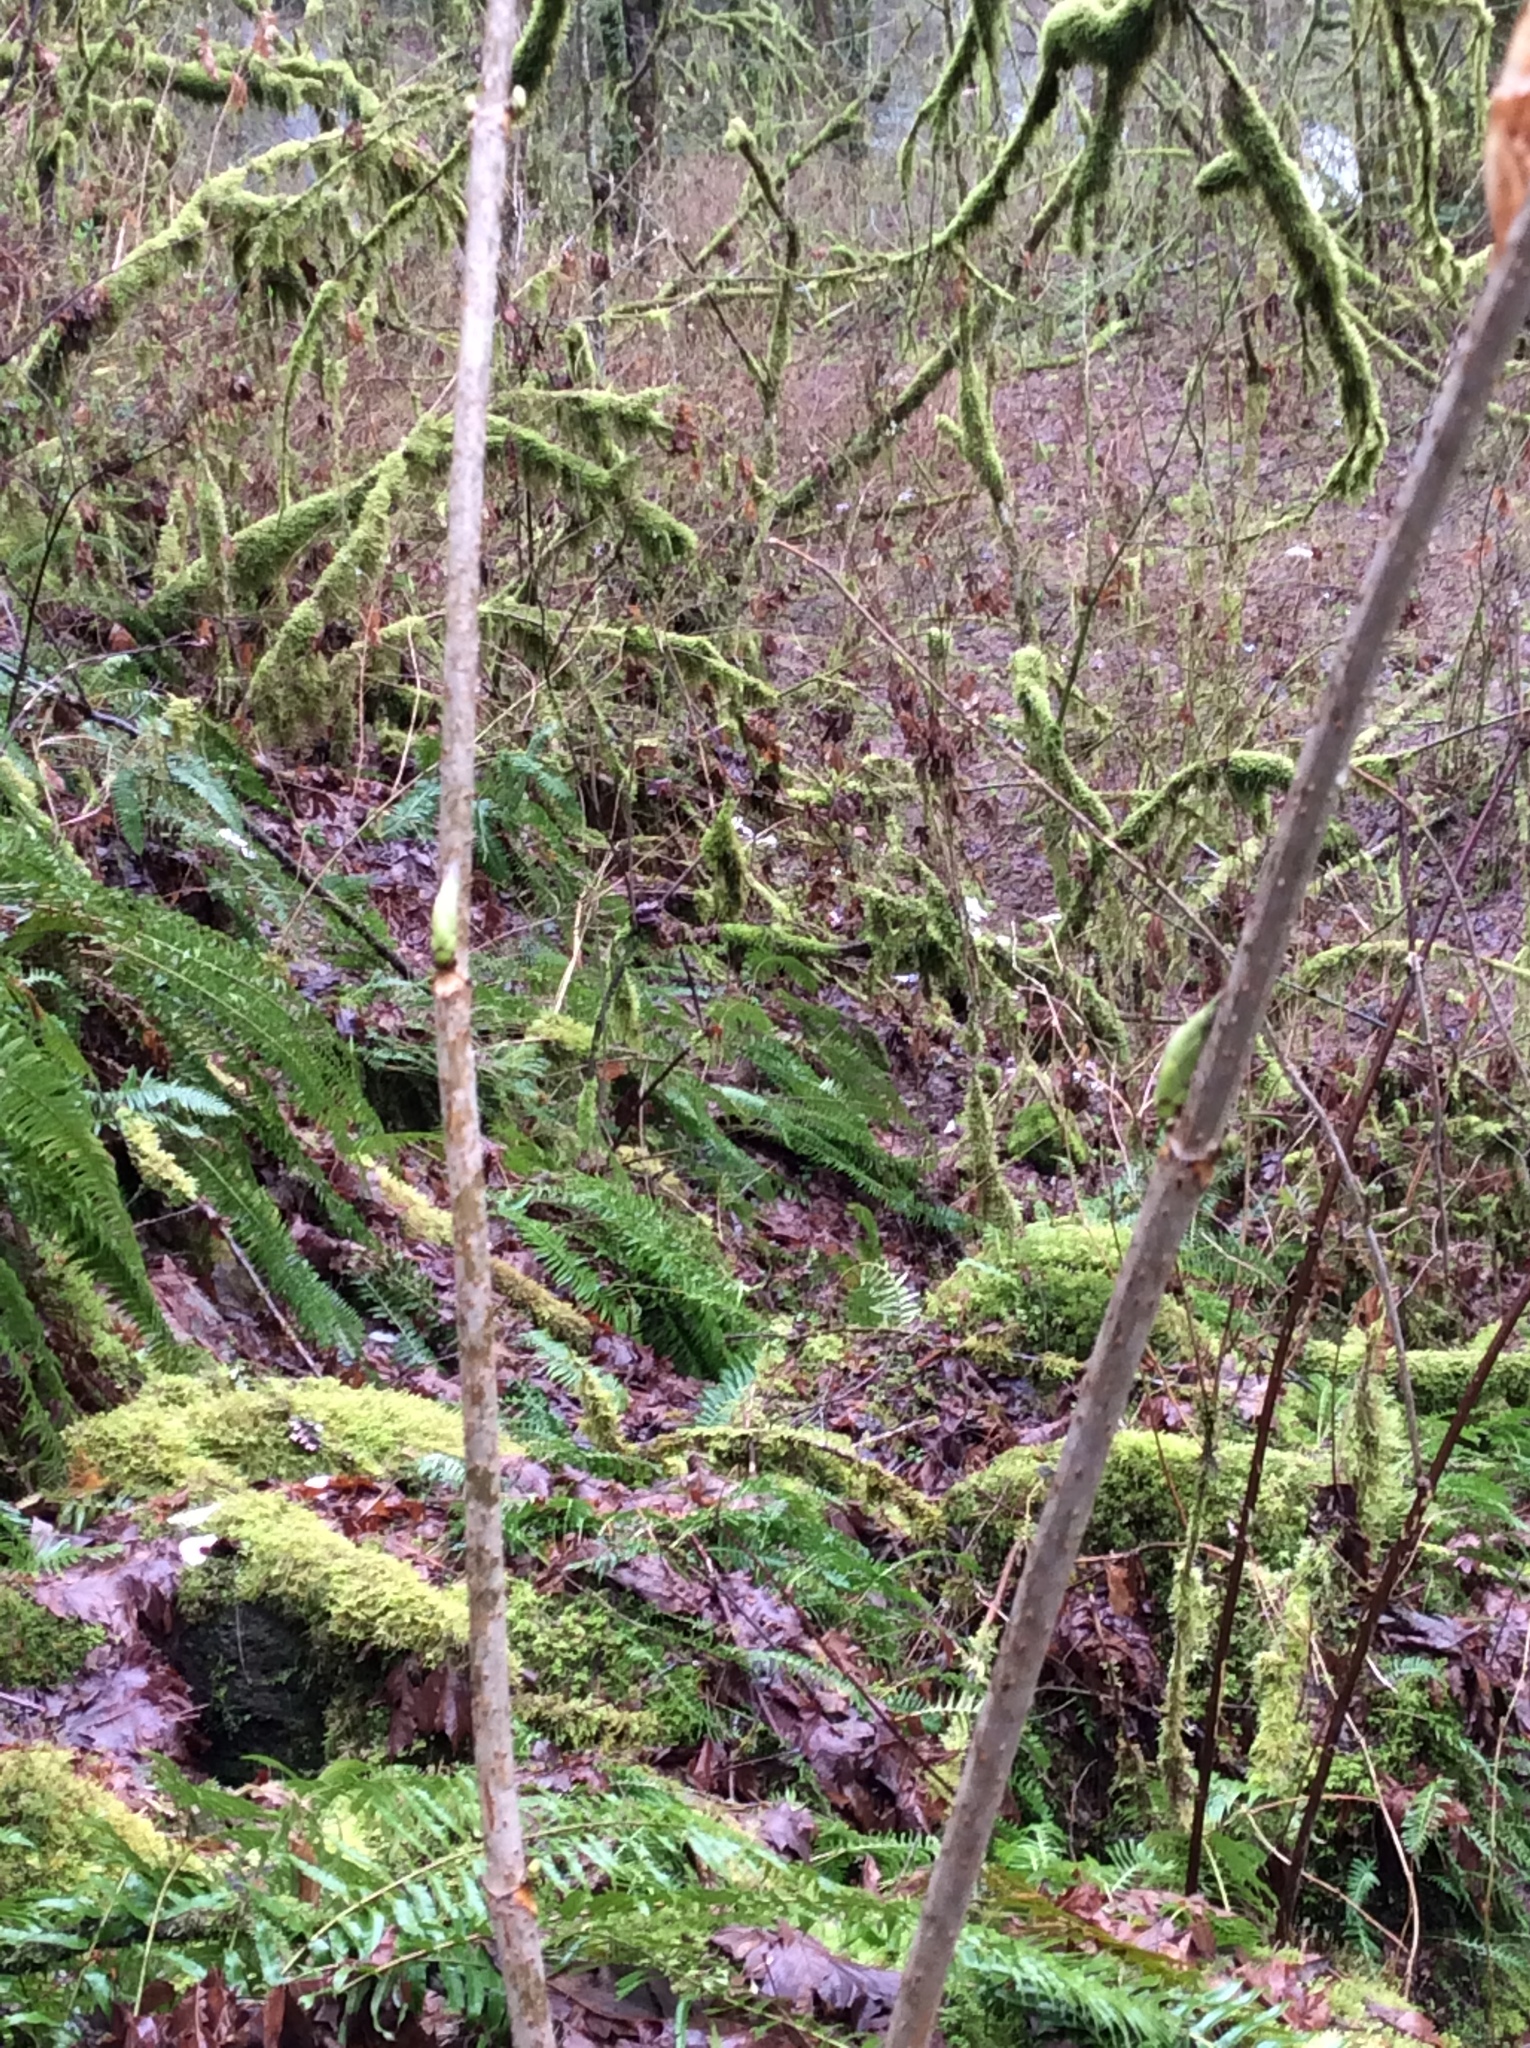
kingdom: Plantae
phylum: Tracheophyta
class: Magnoliopsida
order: Dipsacales
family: Viburnaceae
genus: Sambucus
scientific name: Sambucus racemosa
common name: Red-berried elder
